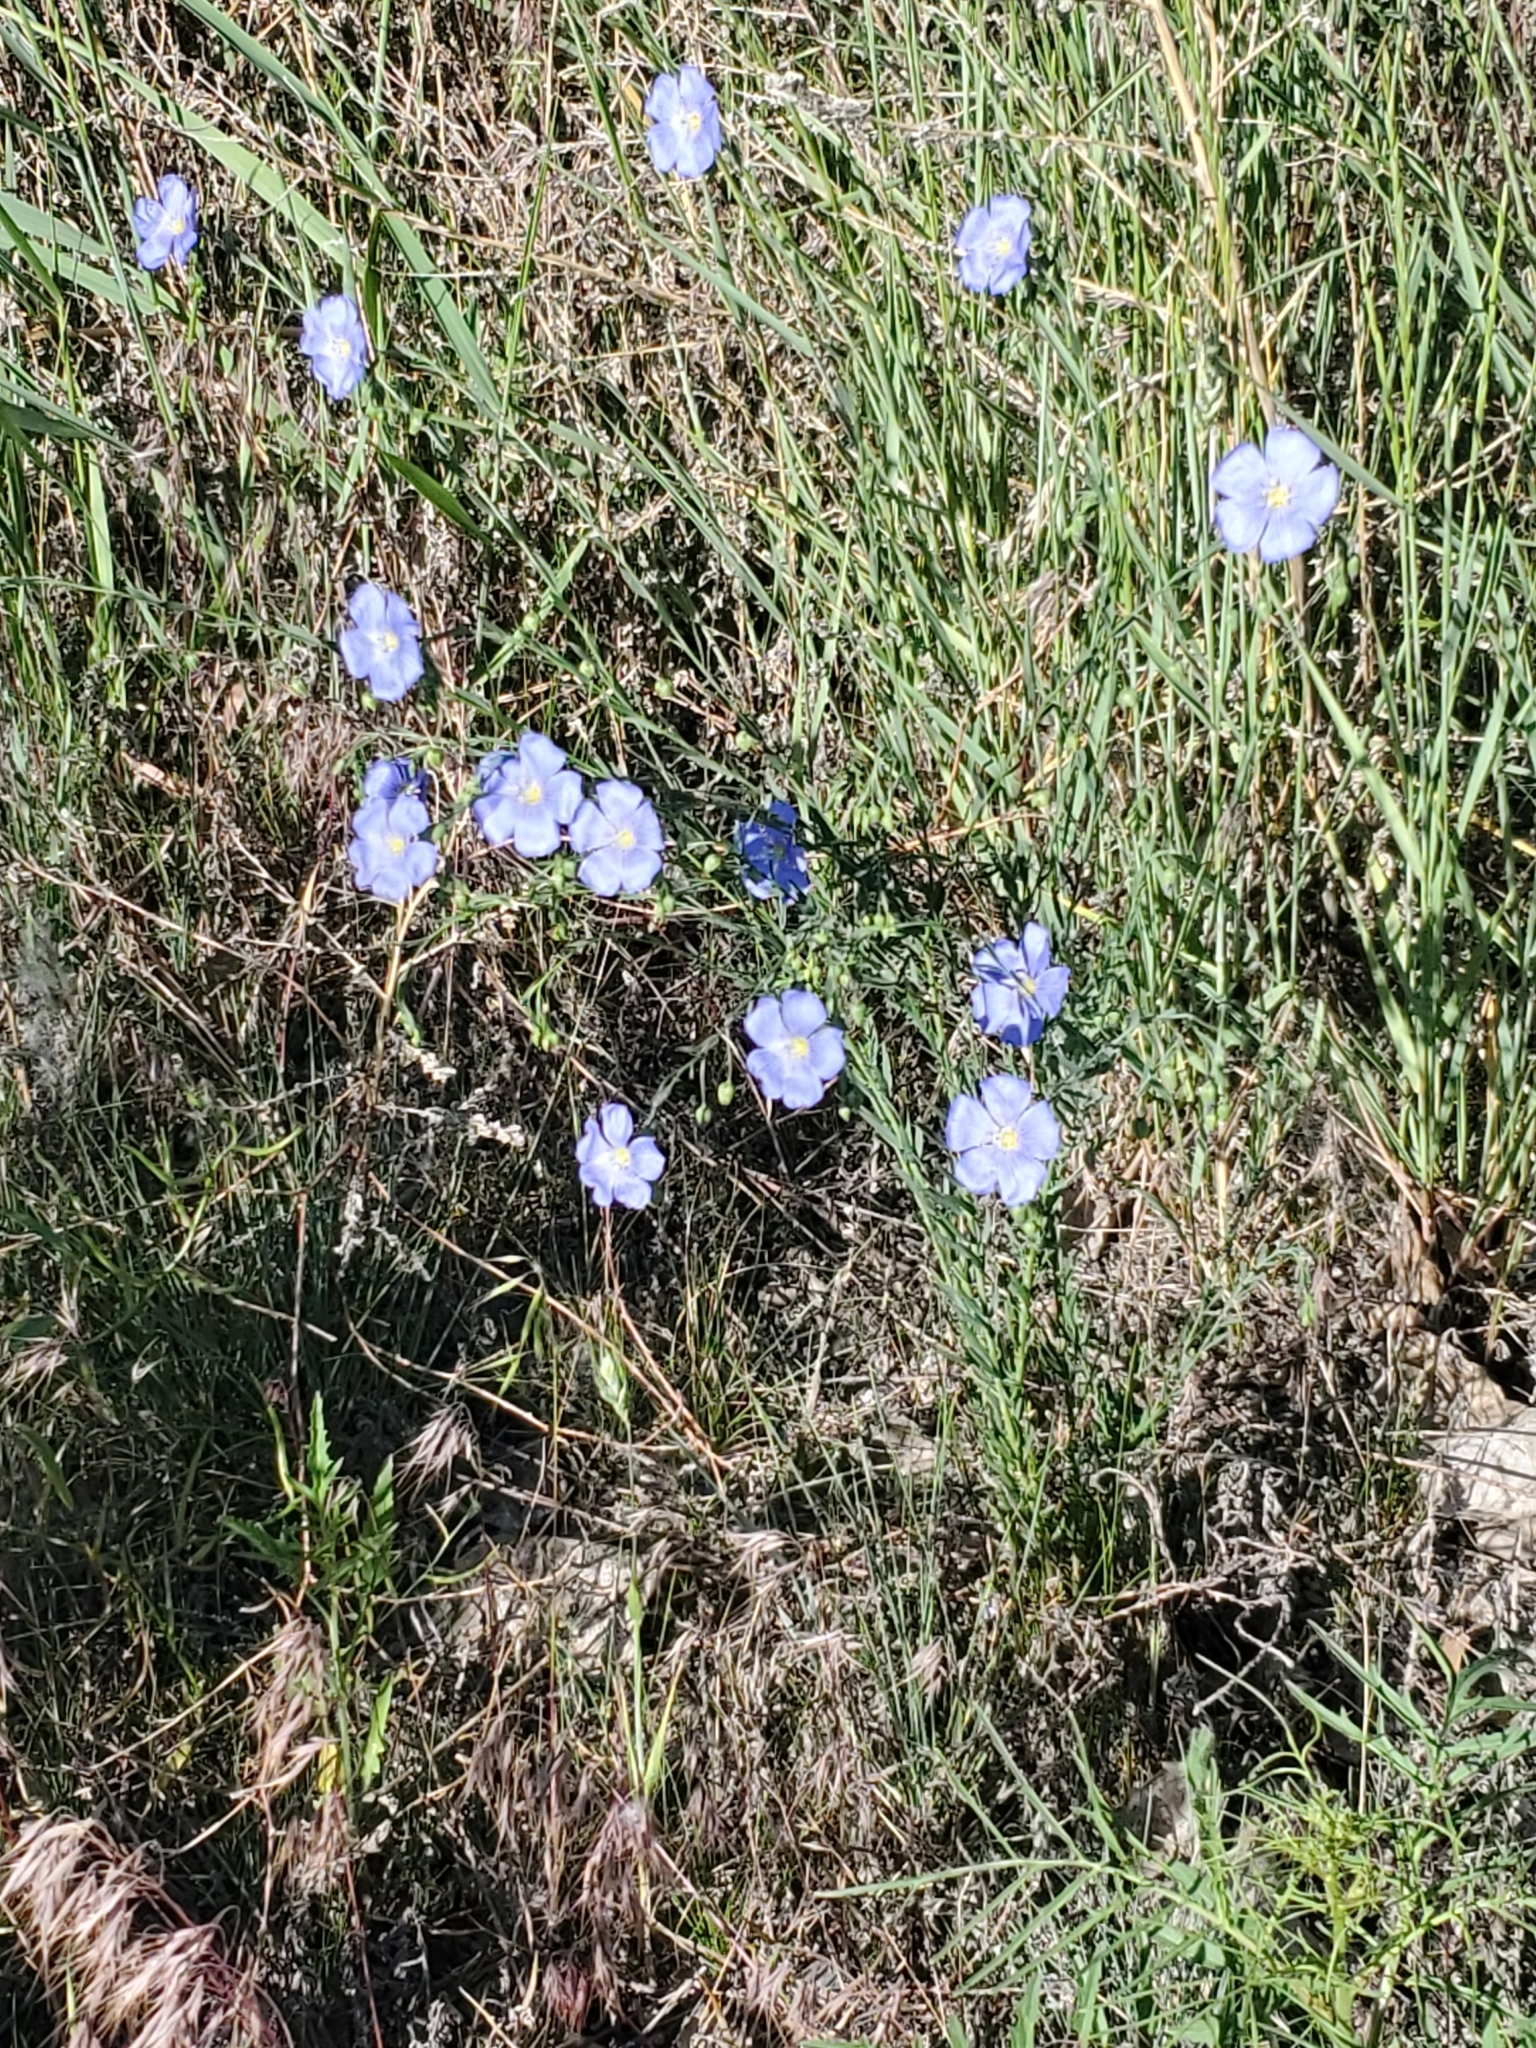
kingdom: Plantae
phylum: Tracheophyta
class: Magnoliopsida
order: Malpighiales
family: Linaceae
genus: Linum
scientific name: Linum lewisii
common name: Prairie flax
